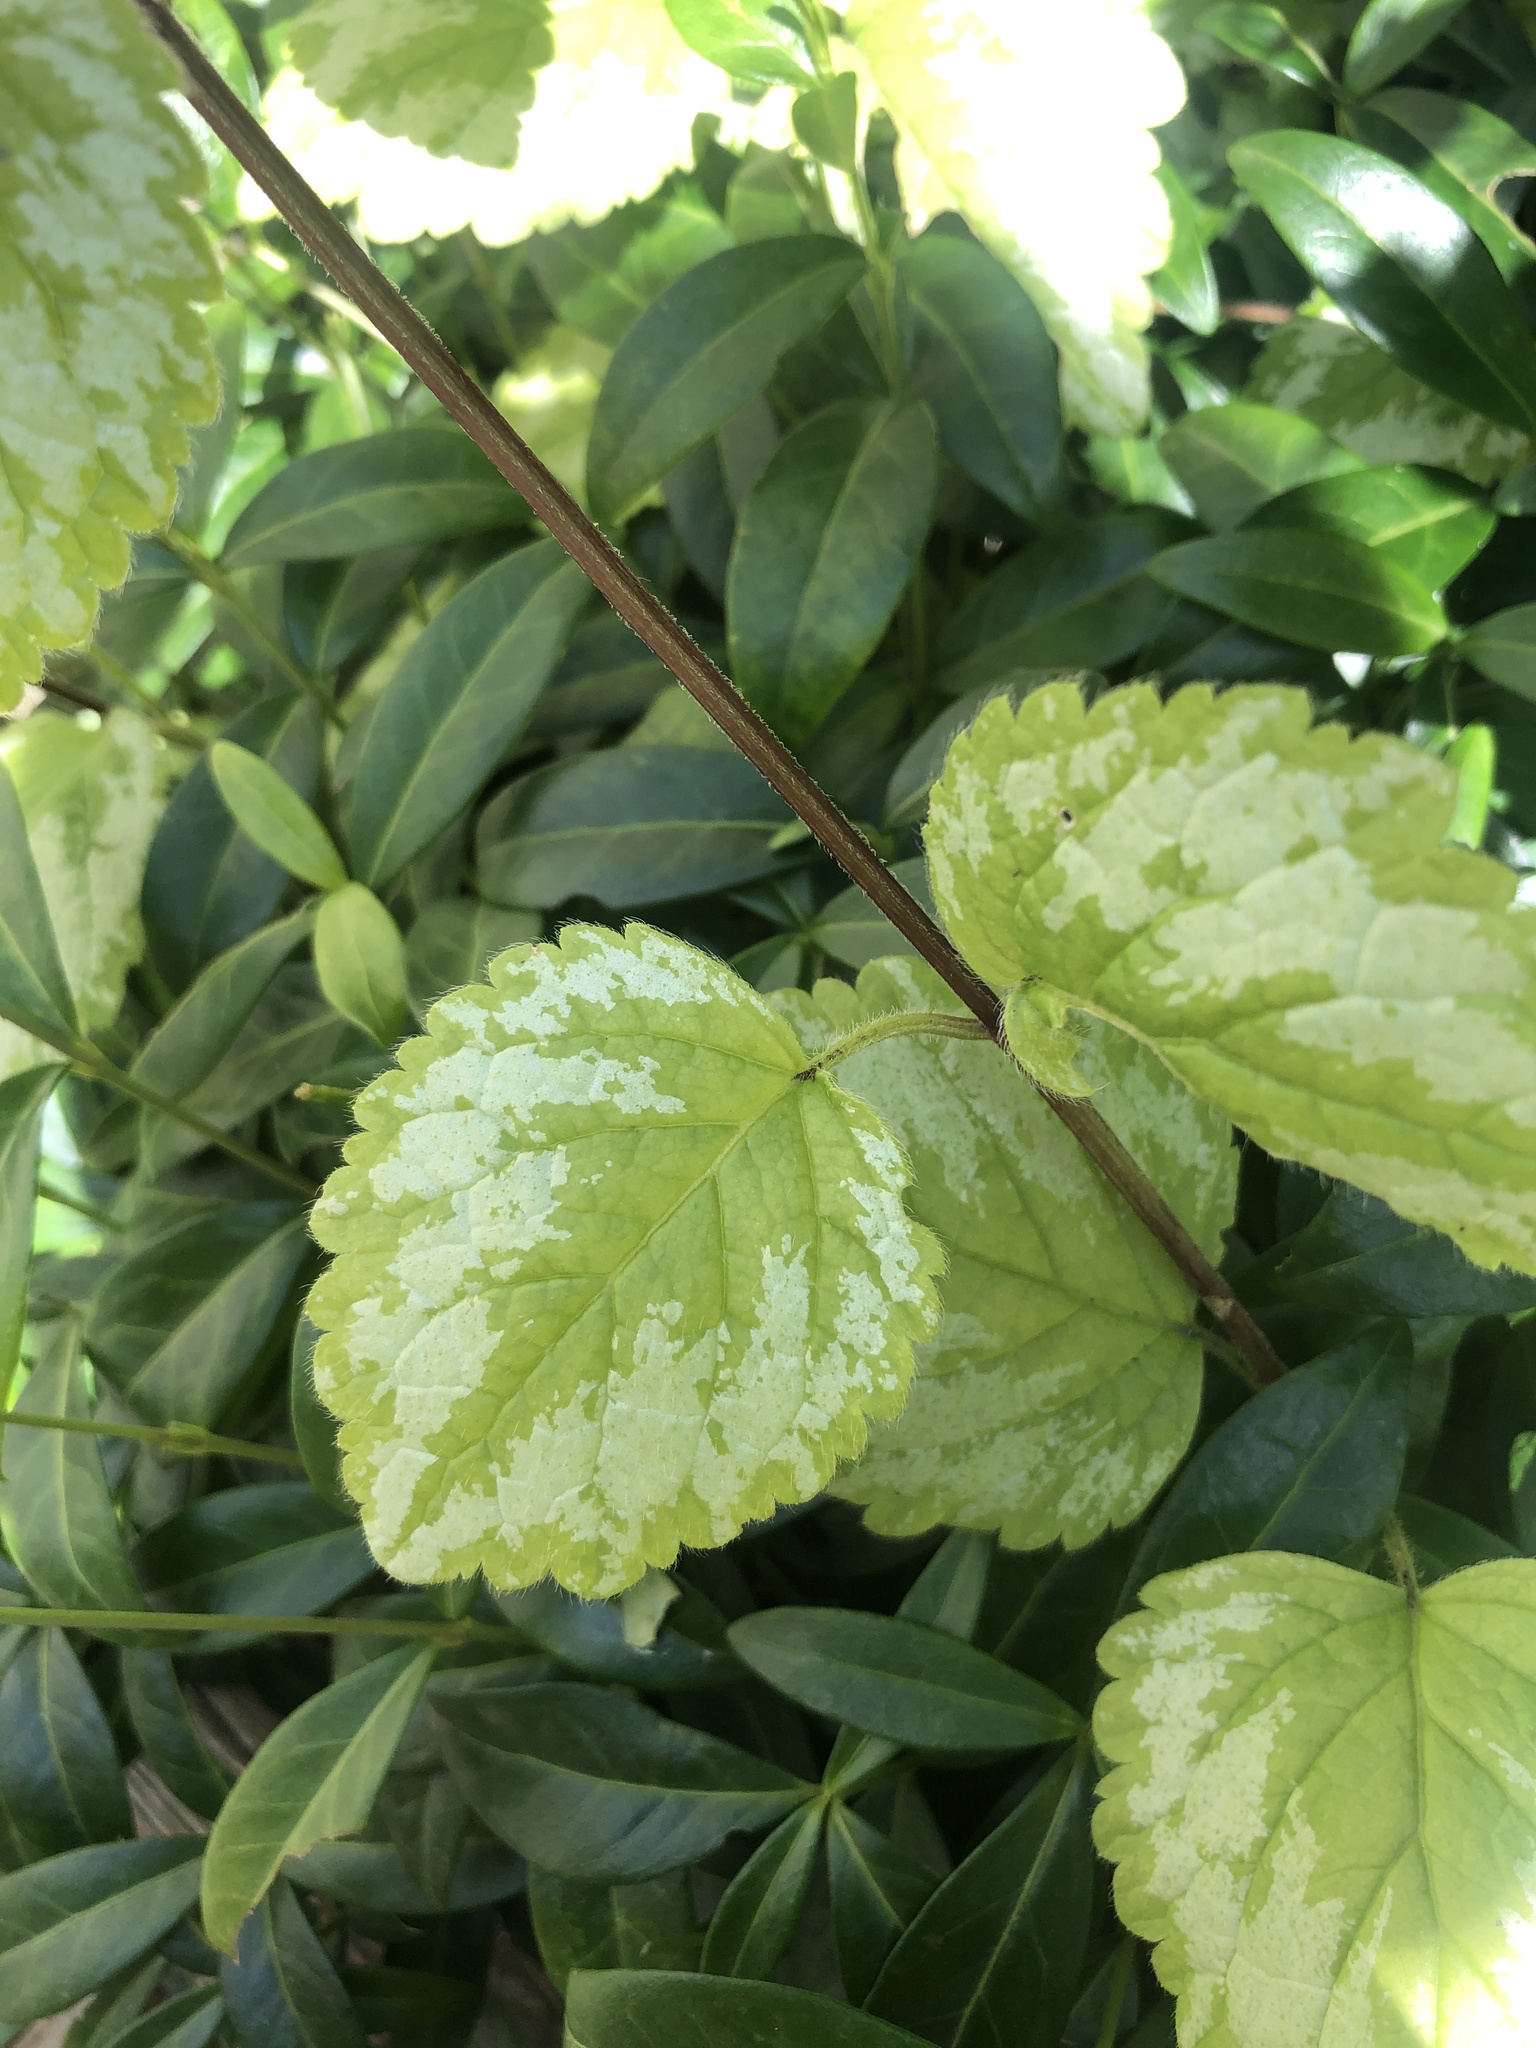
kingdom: Plantae
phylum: Tracheophyta
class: Magnoliopsida
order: Lamiales
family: Lamiaceae
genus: Lamium
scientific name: Lamium galeobdolon
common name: Yellow archangel
